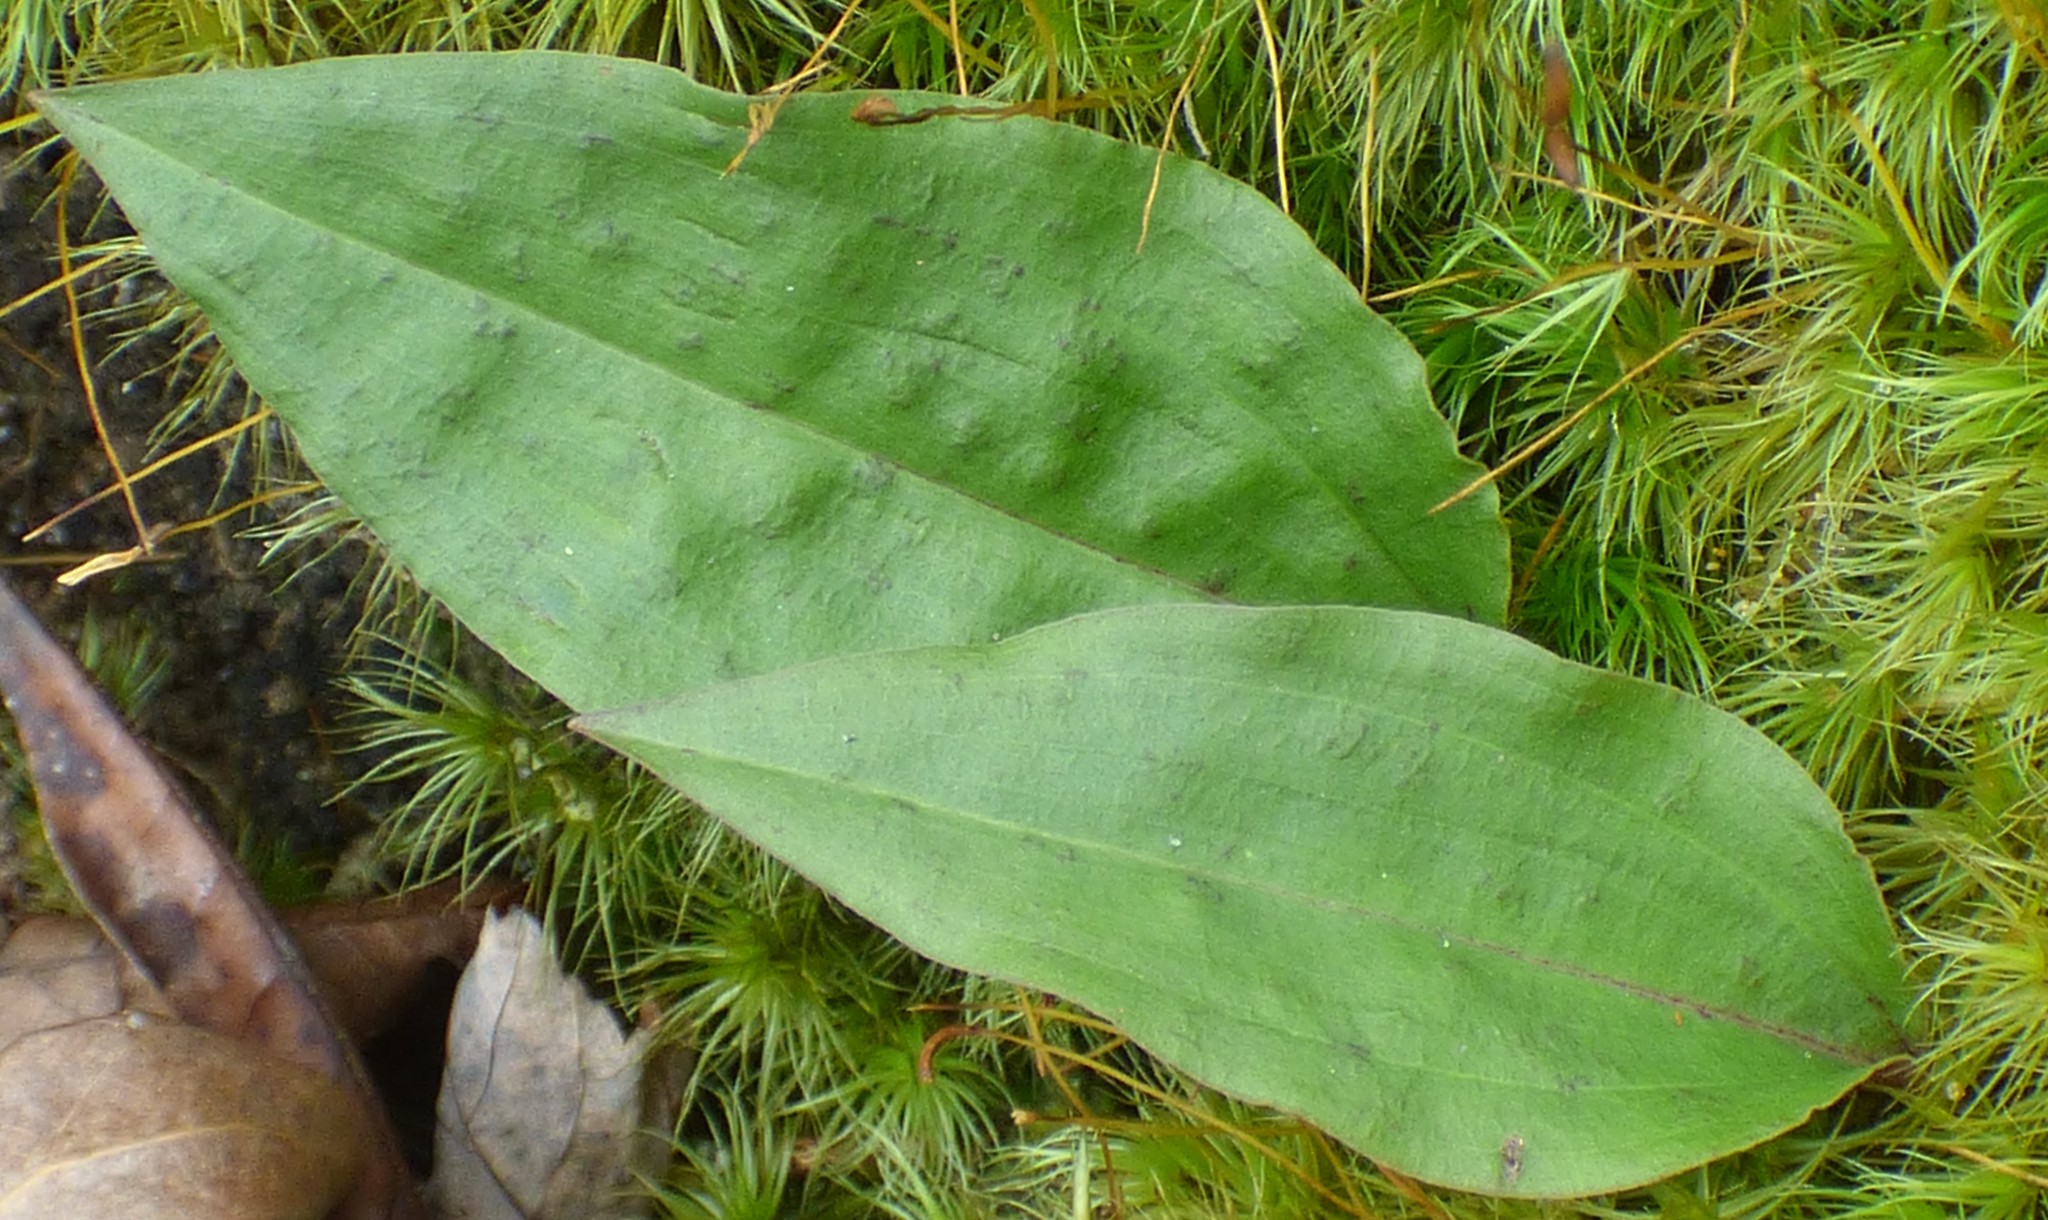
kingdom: Plantae
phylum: Tracheophyta
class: Liliopsida
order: Asparagales
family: Orchidaceae
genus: Tipularia
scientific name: Tipularia discolor
